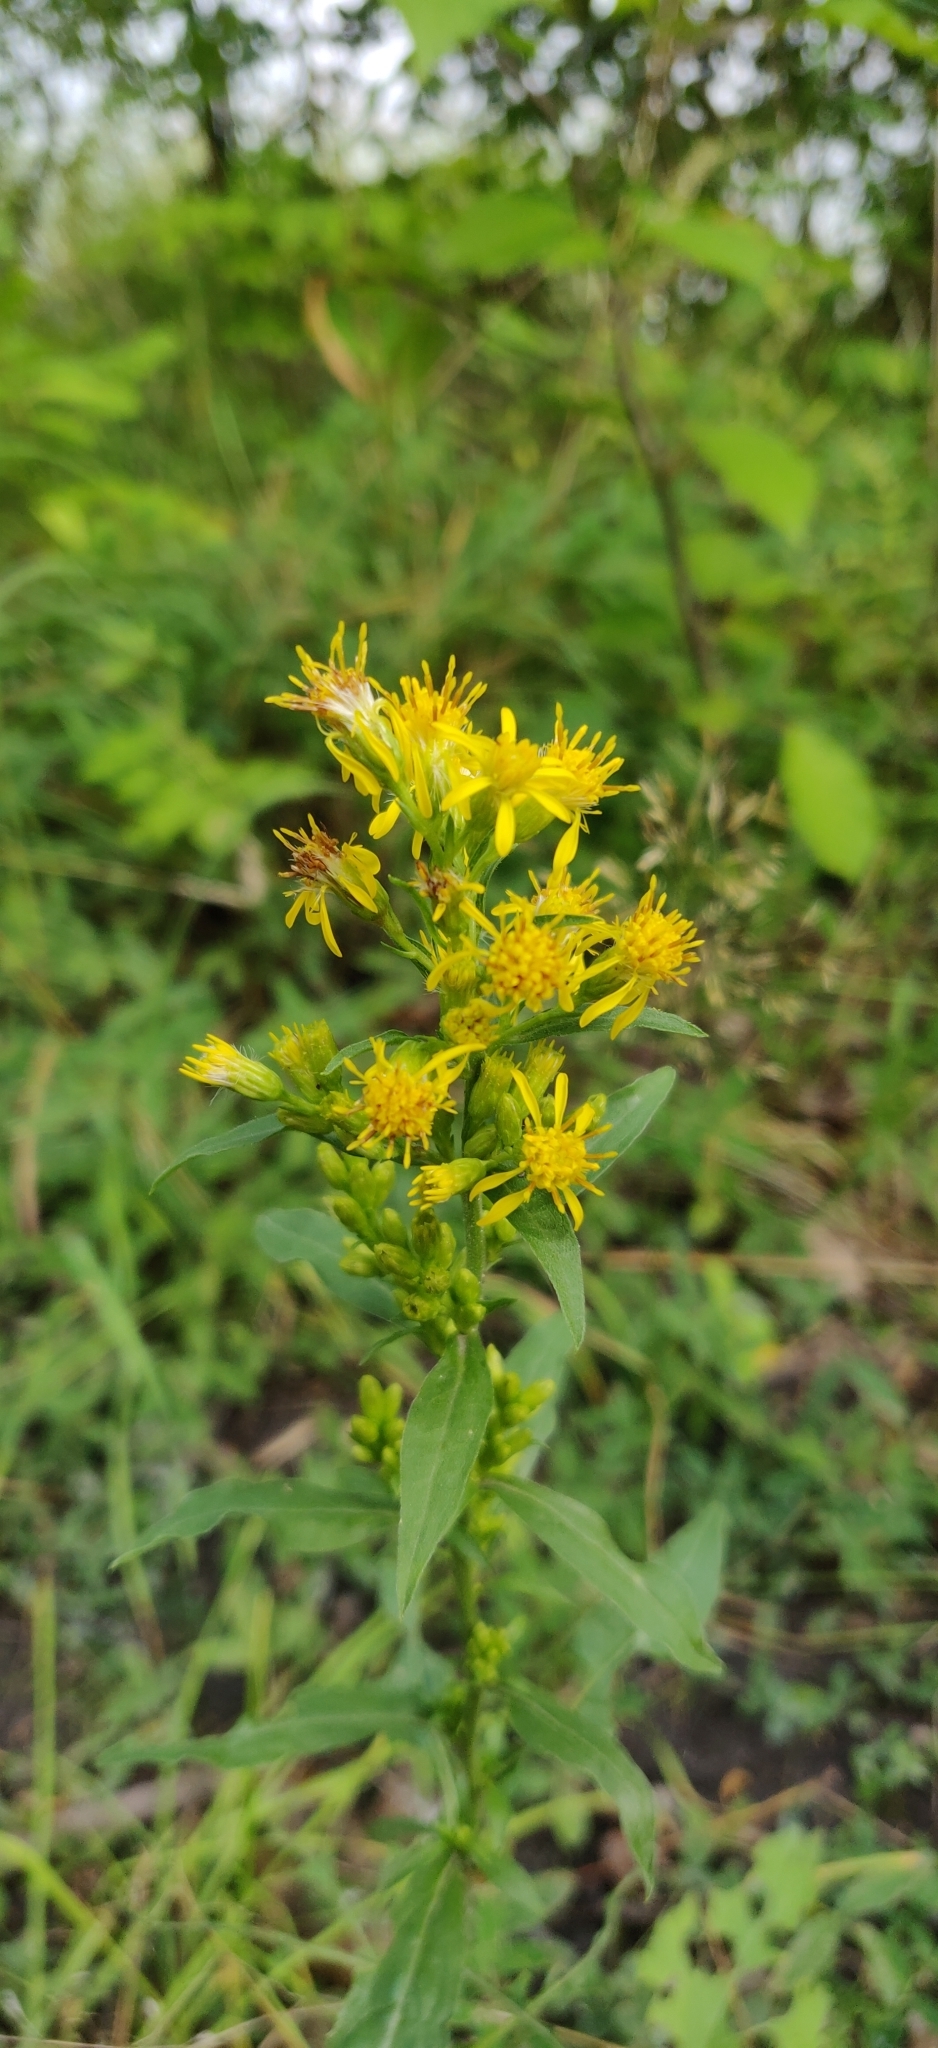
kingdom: Plantae
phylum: Tracheophyta
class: Magnoliopsida
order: Asterales
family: Asteraceae
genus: Solidago
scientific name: Solidago virgaurea
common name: Goldenrod
